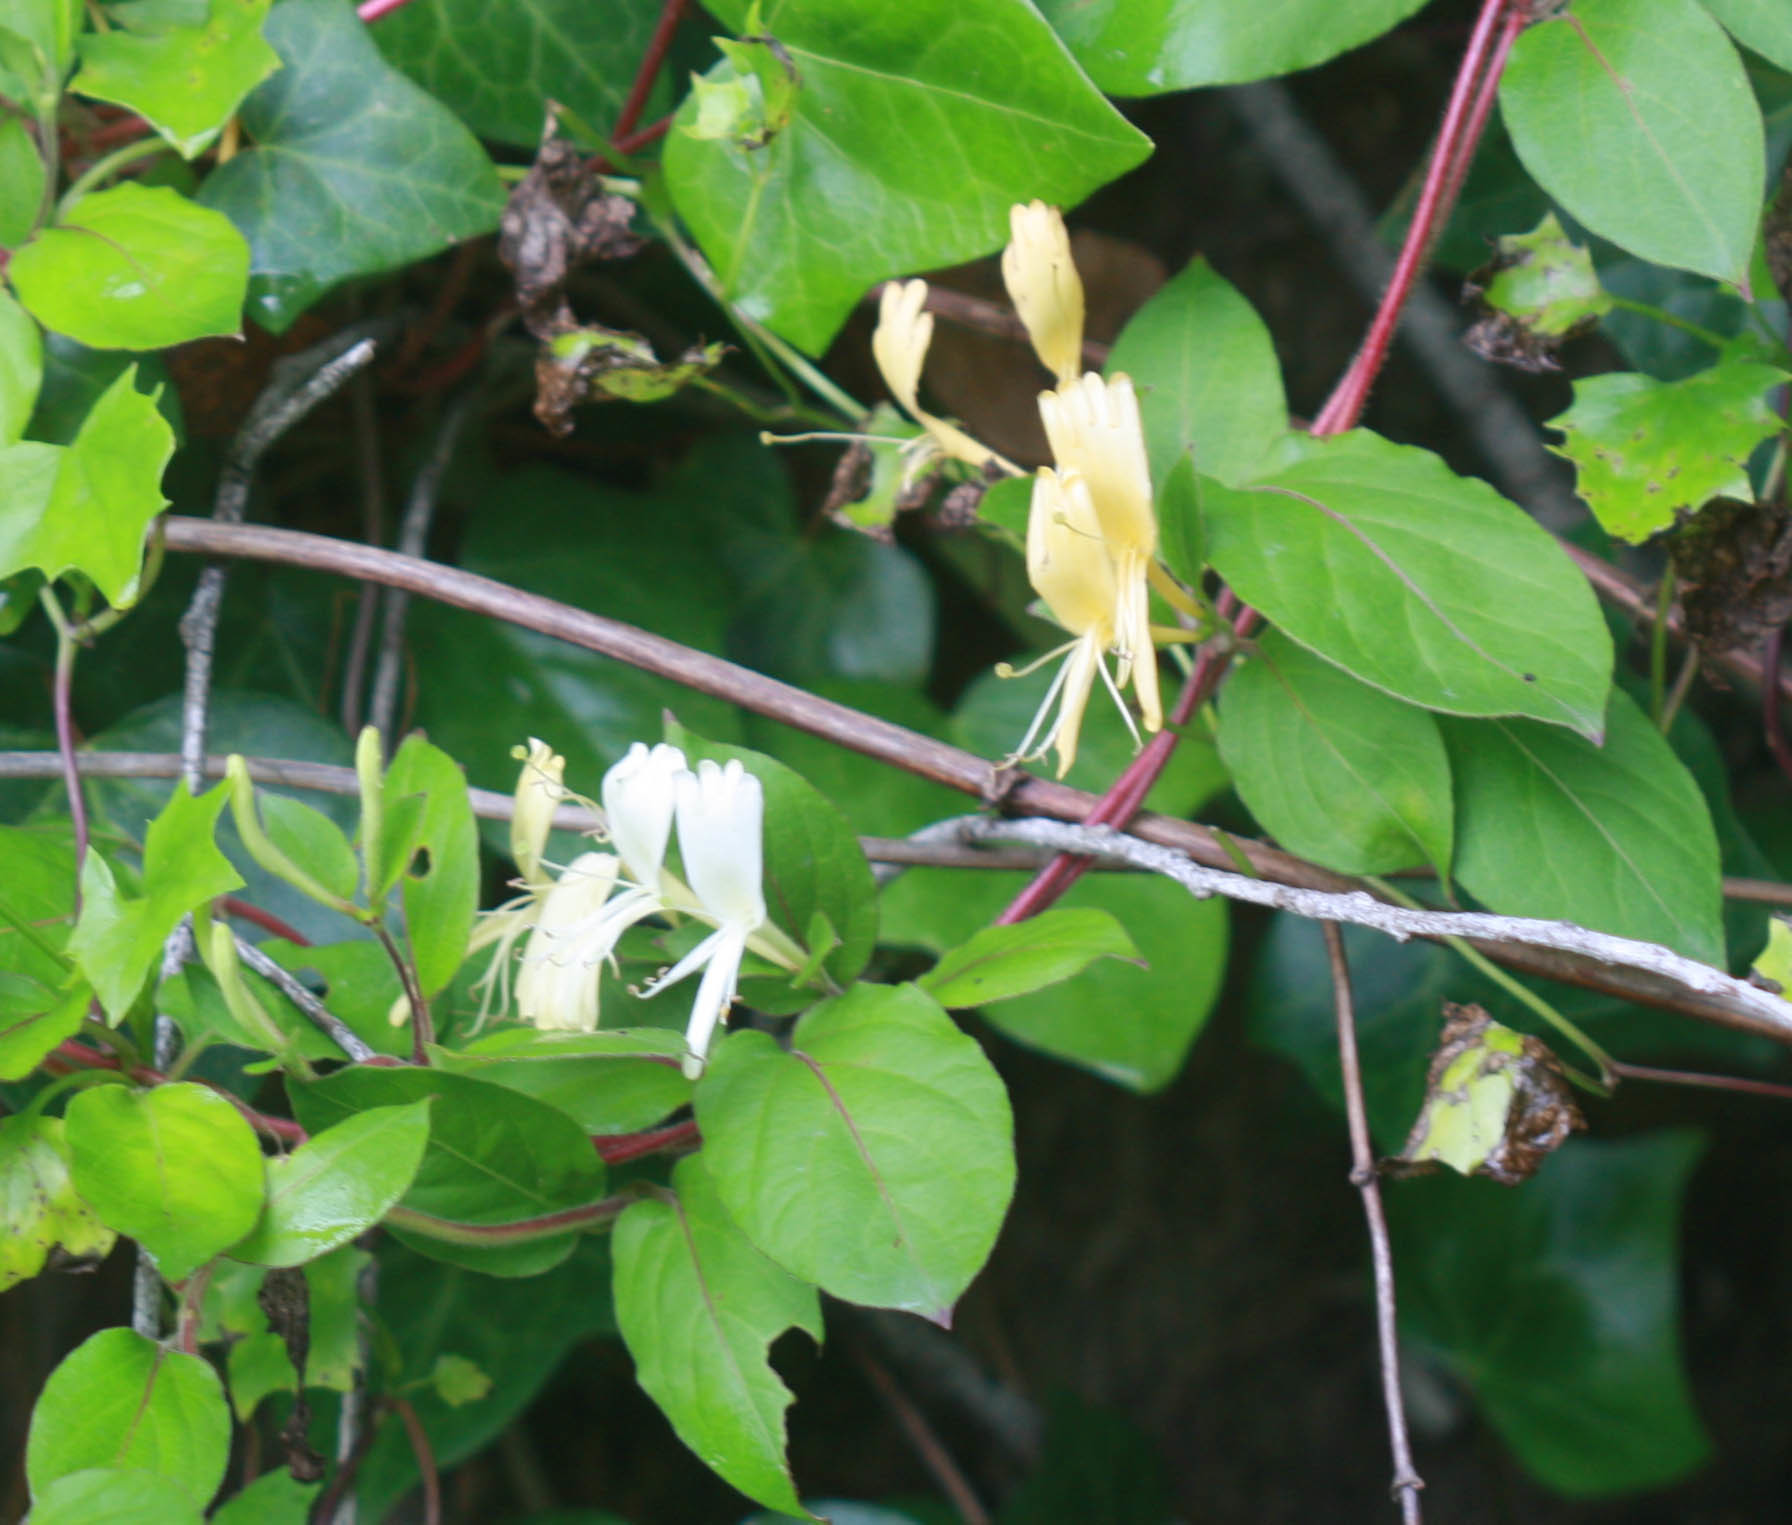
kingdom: Plantae
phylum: Tracheophyta
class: Magnoliopsida
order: Dipsacales
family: Caprifoliaceae
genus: Lonicera
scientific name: Lonicera japonica
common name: Japanese honeysuckle
